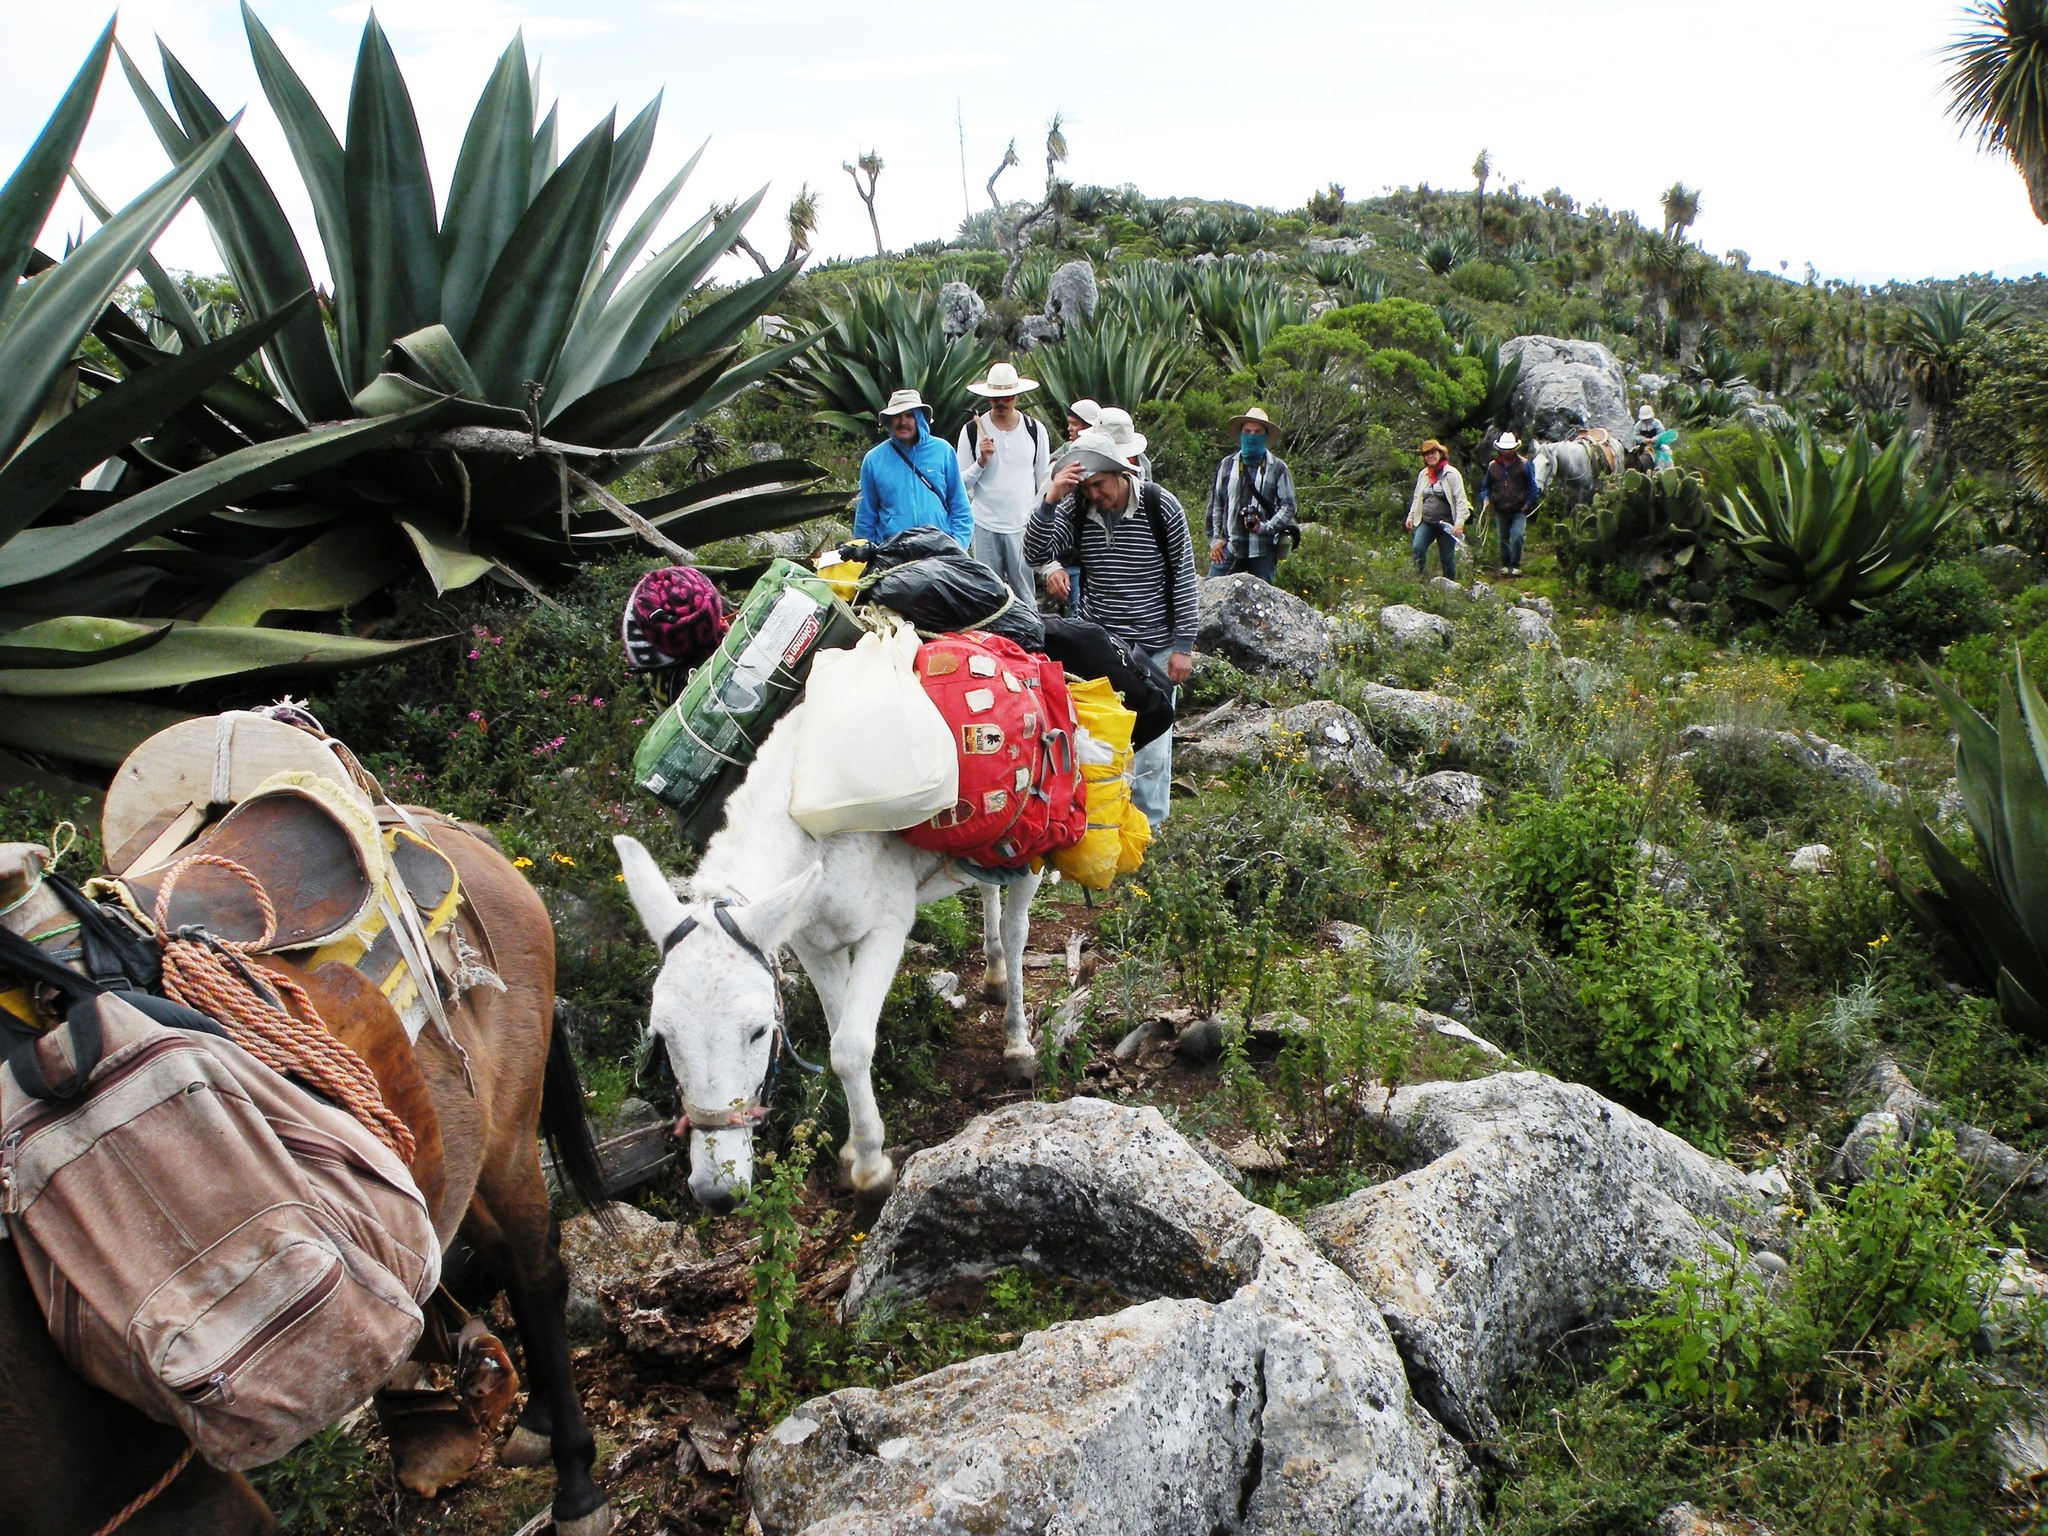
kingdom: Plantae
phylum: Tracheophyta
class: Liliopsida
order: Asparagales
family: Asparagaceae
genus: Agave
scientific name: Agave atrovirens
